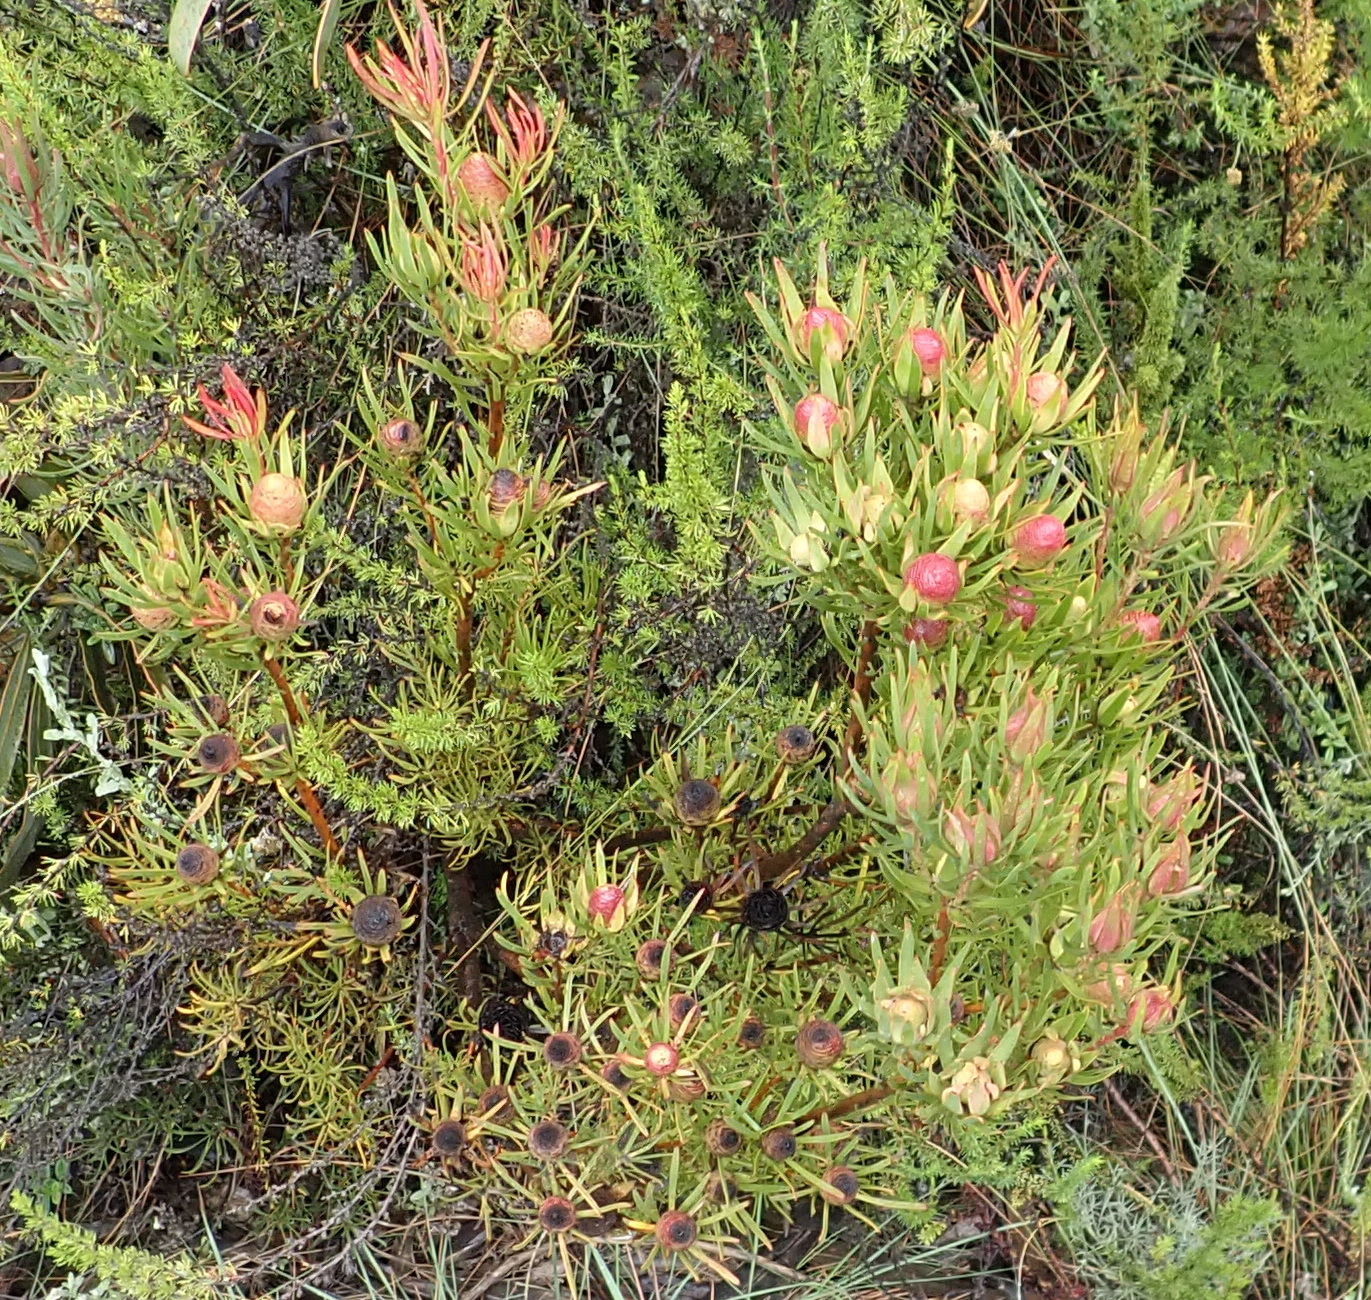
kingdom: Plantae
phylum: Tracheophyta
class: Magnoliopsida
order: Proteales
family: Proteaceae
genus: Leucadendron
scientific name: Leucadendron spissifolium
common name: Spear-leaf conebush
